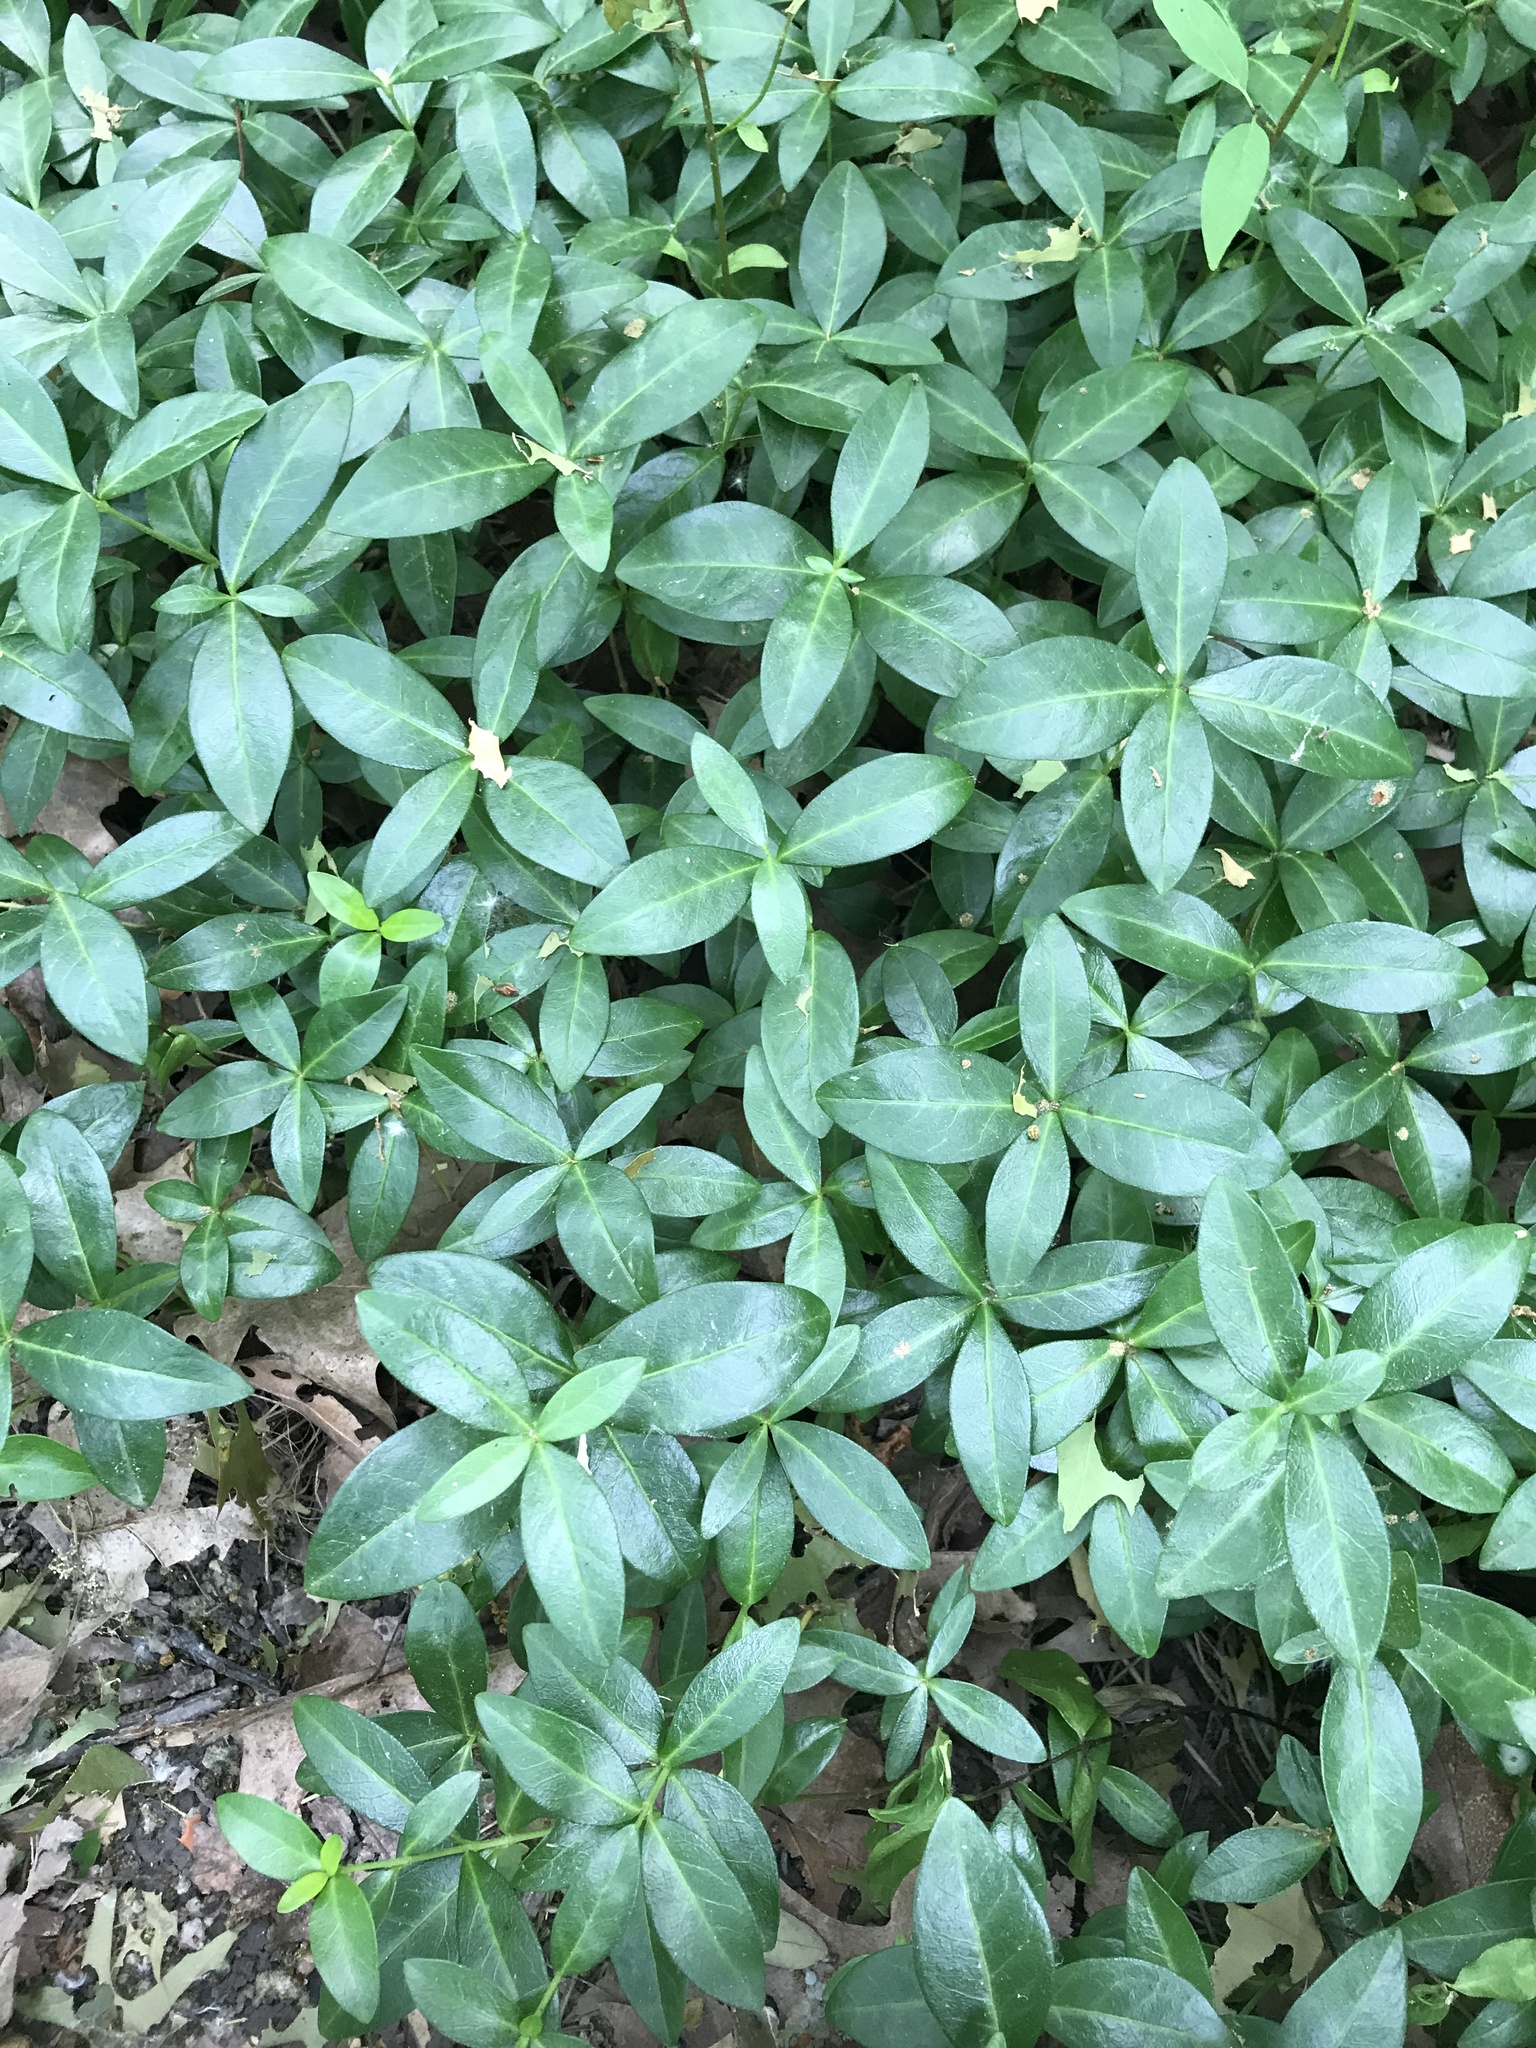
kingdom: Plantae
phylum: Tracheophyta
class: Magnoliopsida
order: Gentianales
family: Apocynaceae
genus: Vinca
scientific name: Vinca minor
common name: Lesser periwinkle
